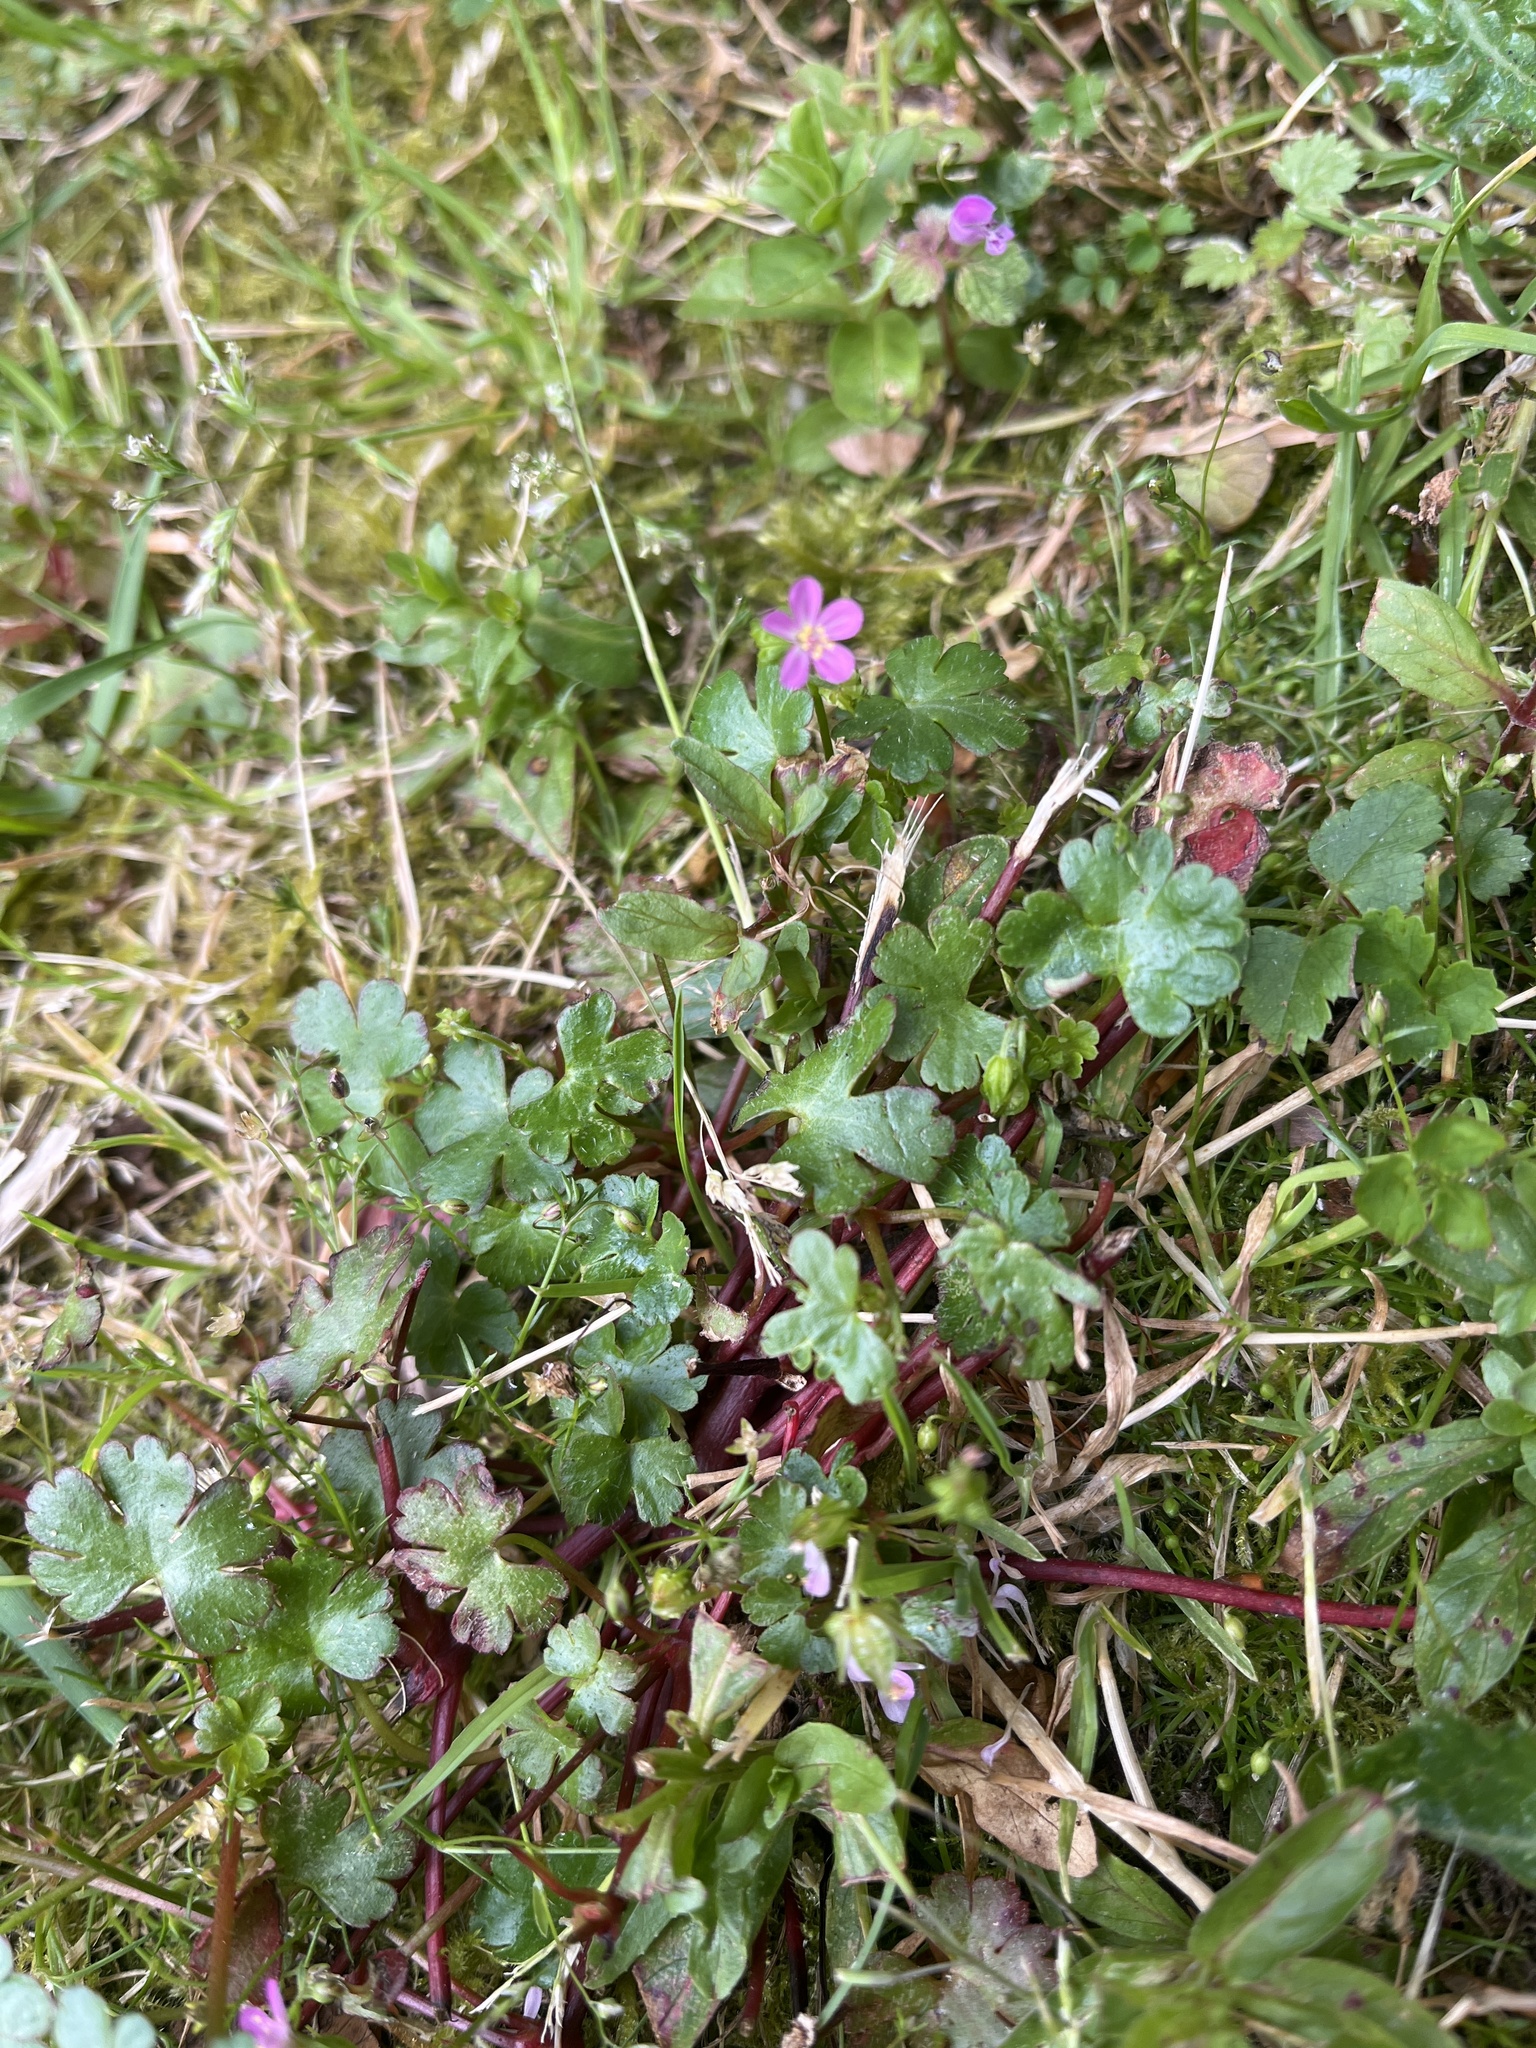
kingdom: Plantae
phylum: Tracheophyta
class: Magnoliopsida
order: Geraniales
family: Geraniaceae
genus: Geranium
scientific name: Geranium lucidum
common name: Shining crane's-bill
